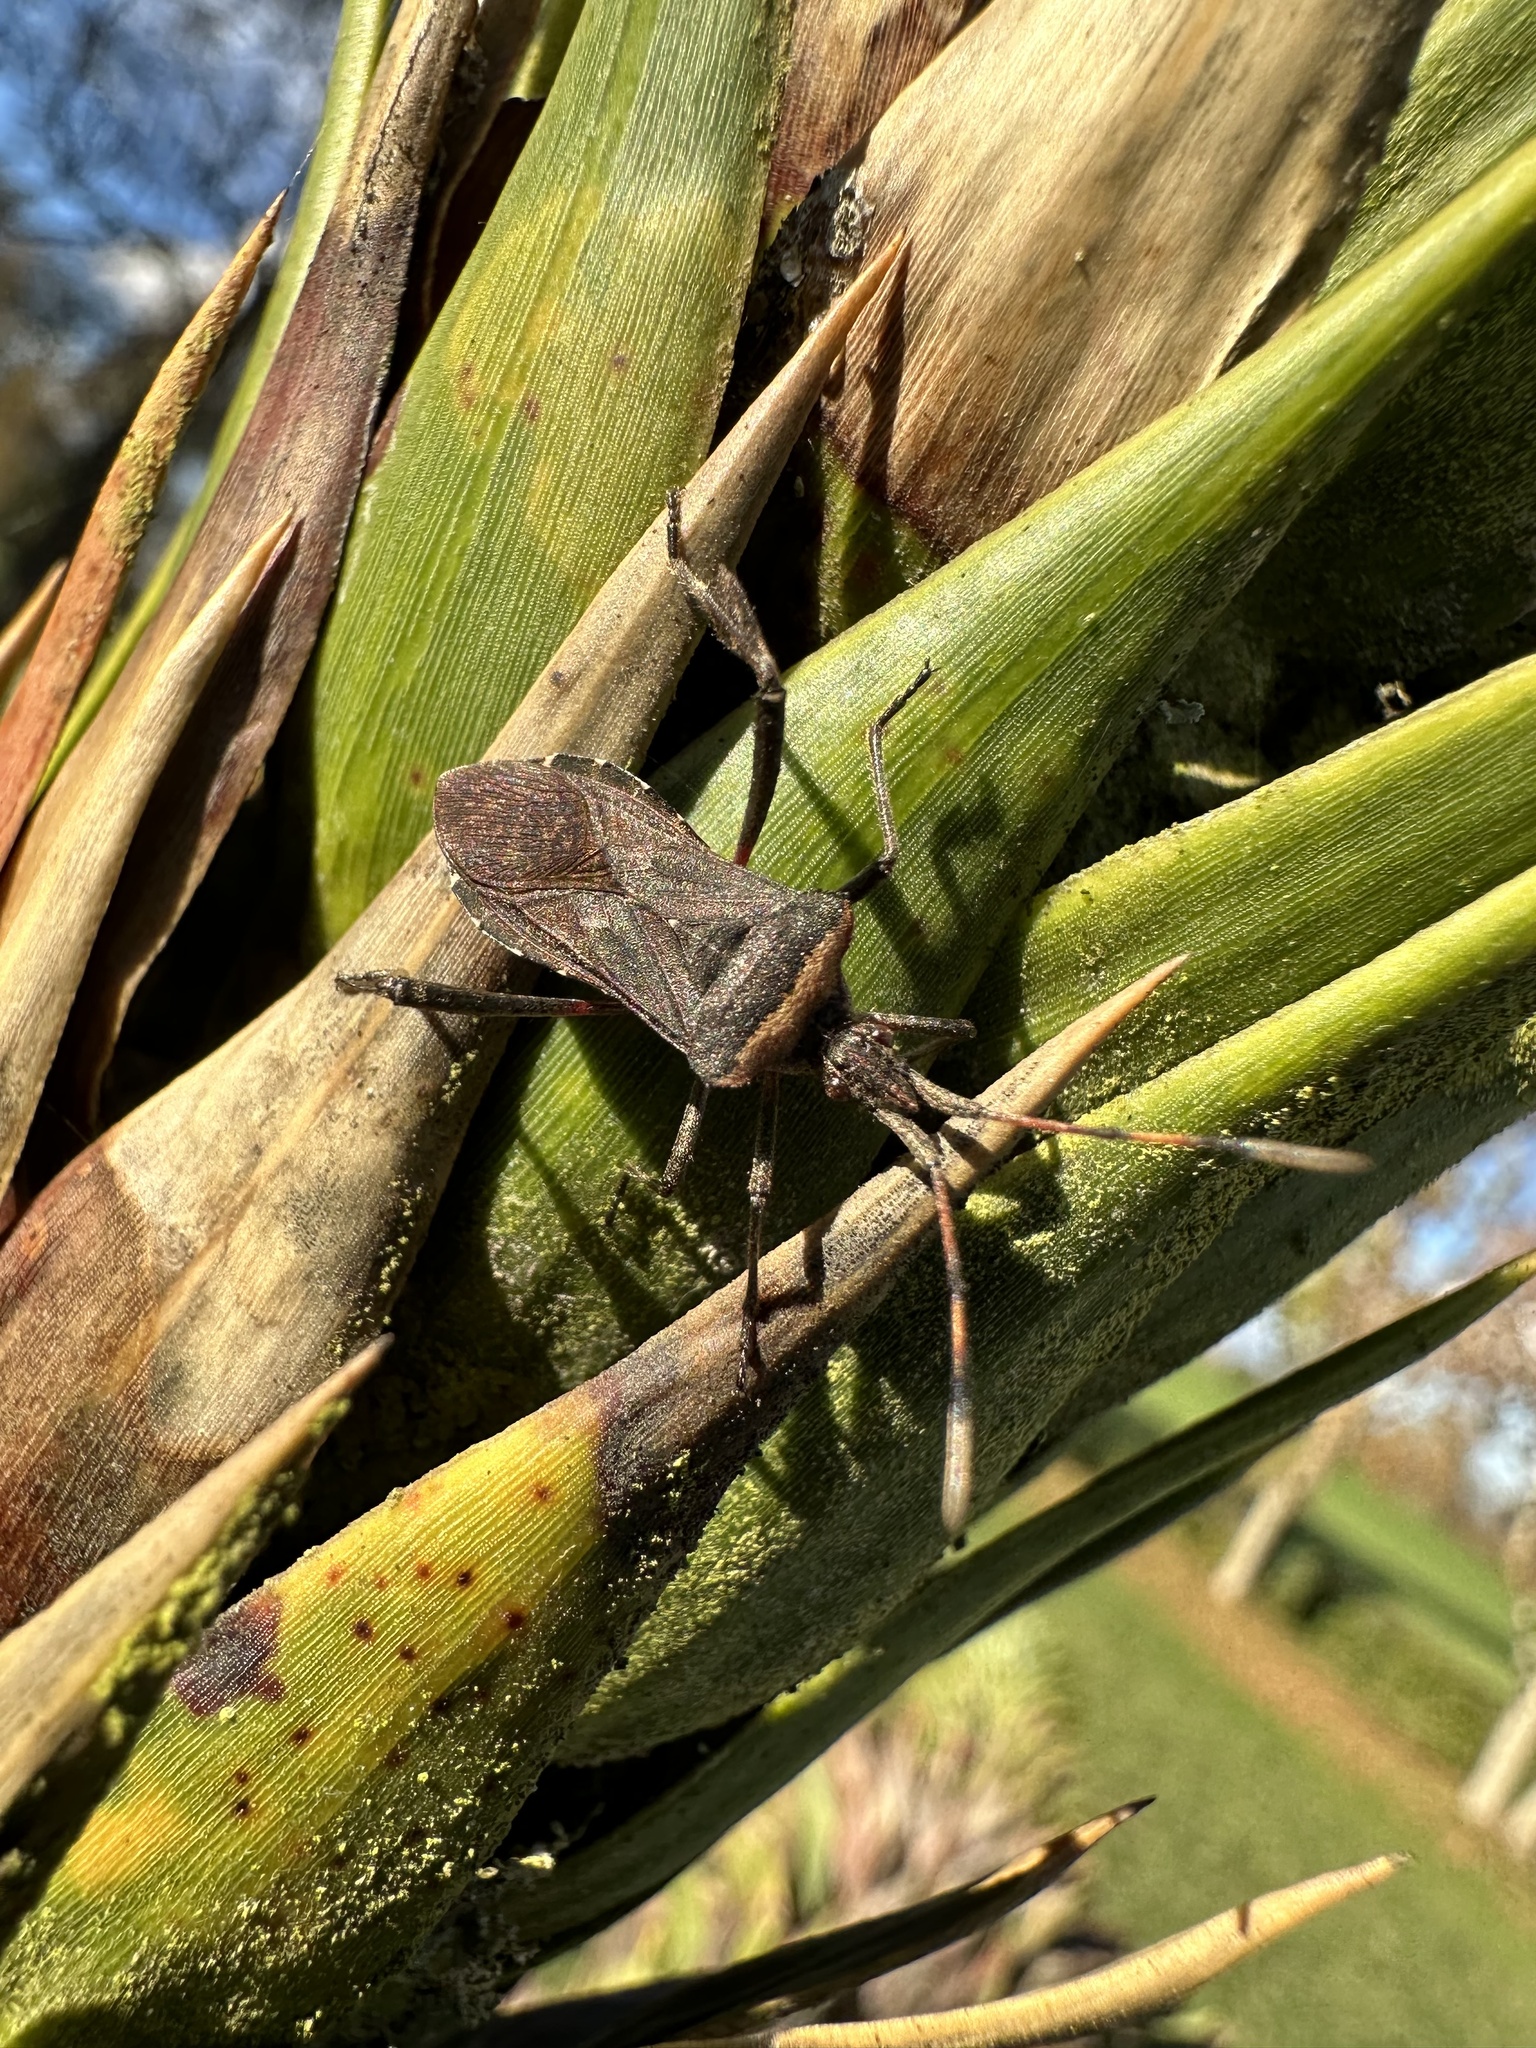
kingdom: Animalia
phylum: Arthropoda
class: Insecta
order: Hemiptera
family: Coreidae
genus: Leptoglossus
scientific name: Leptoglossus chilensis
